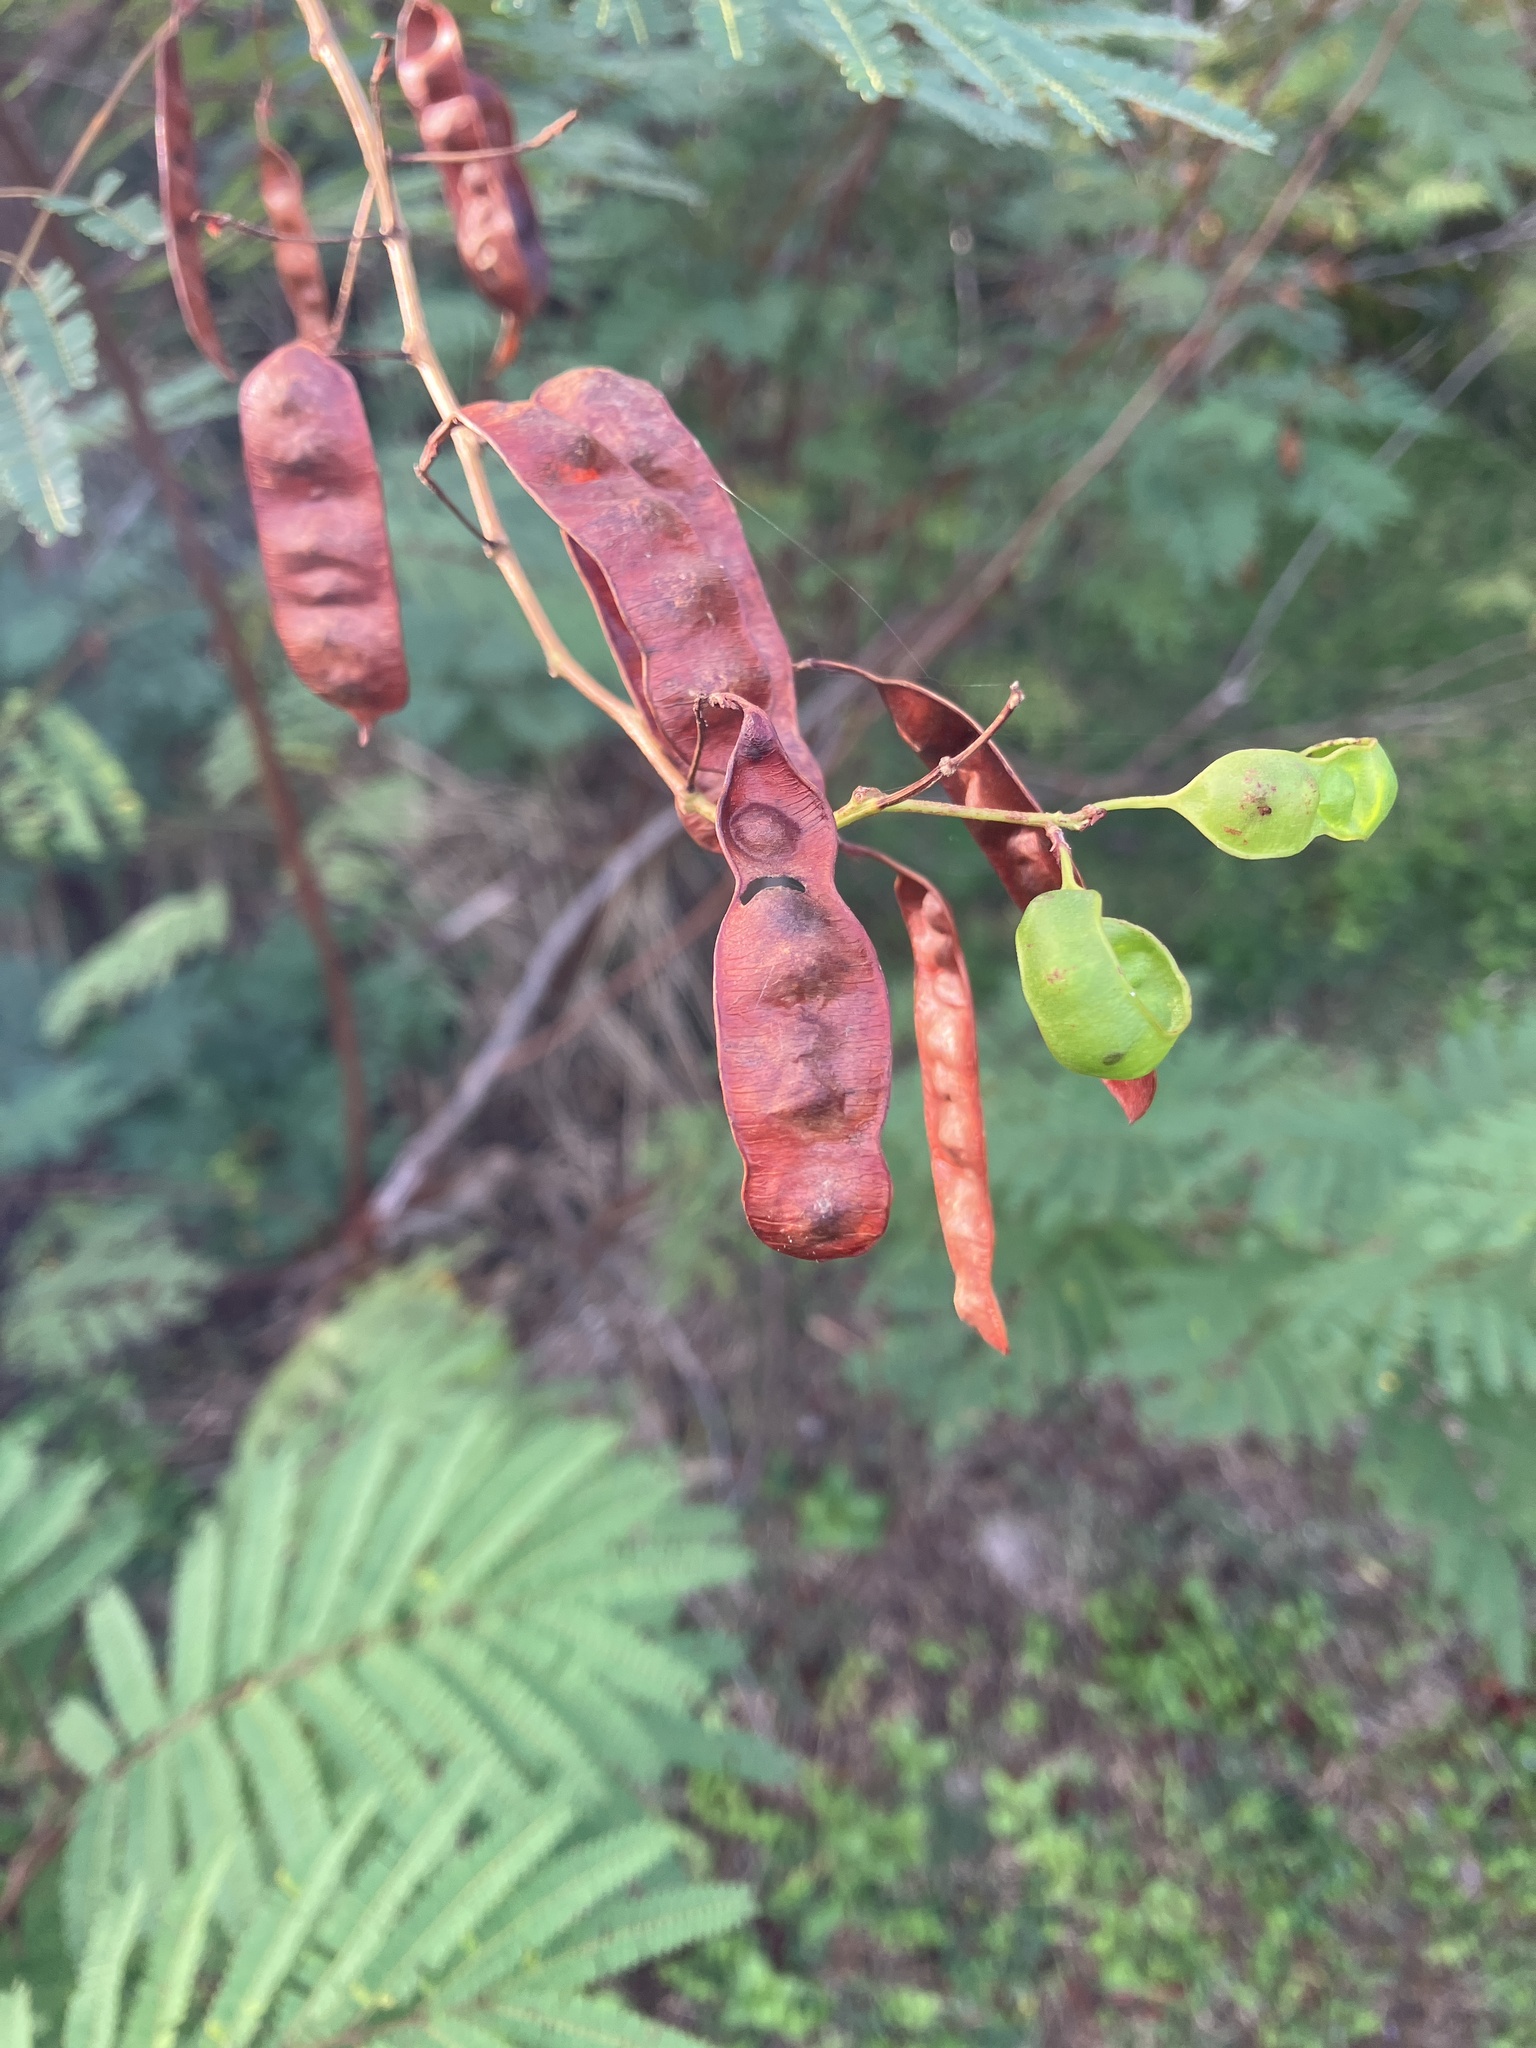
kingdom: Plantae
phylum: Tracheophyta
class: Magnoliopsida
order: Fabales
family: Fabaceae
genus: Leucaena
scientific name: Leucaena leucocephala
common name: White leadtree
